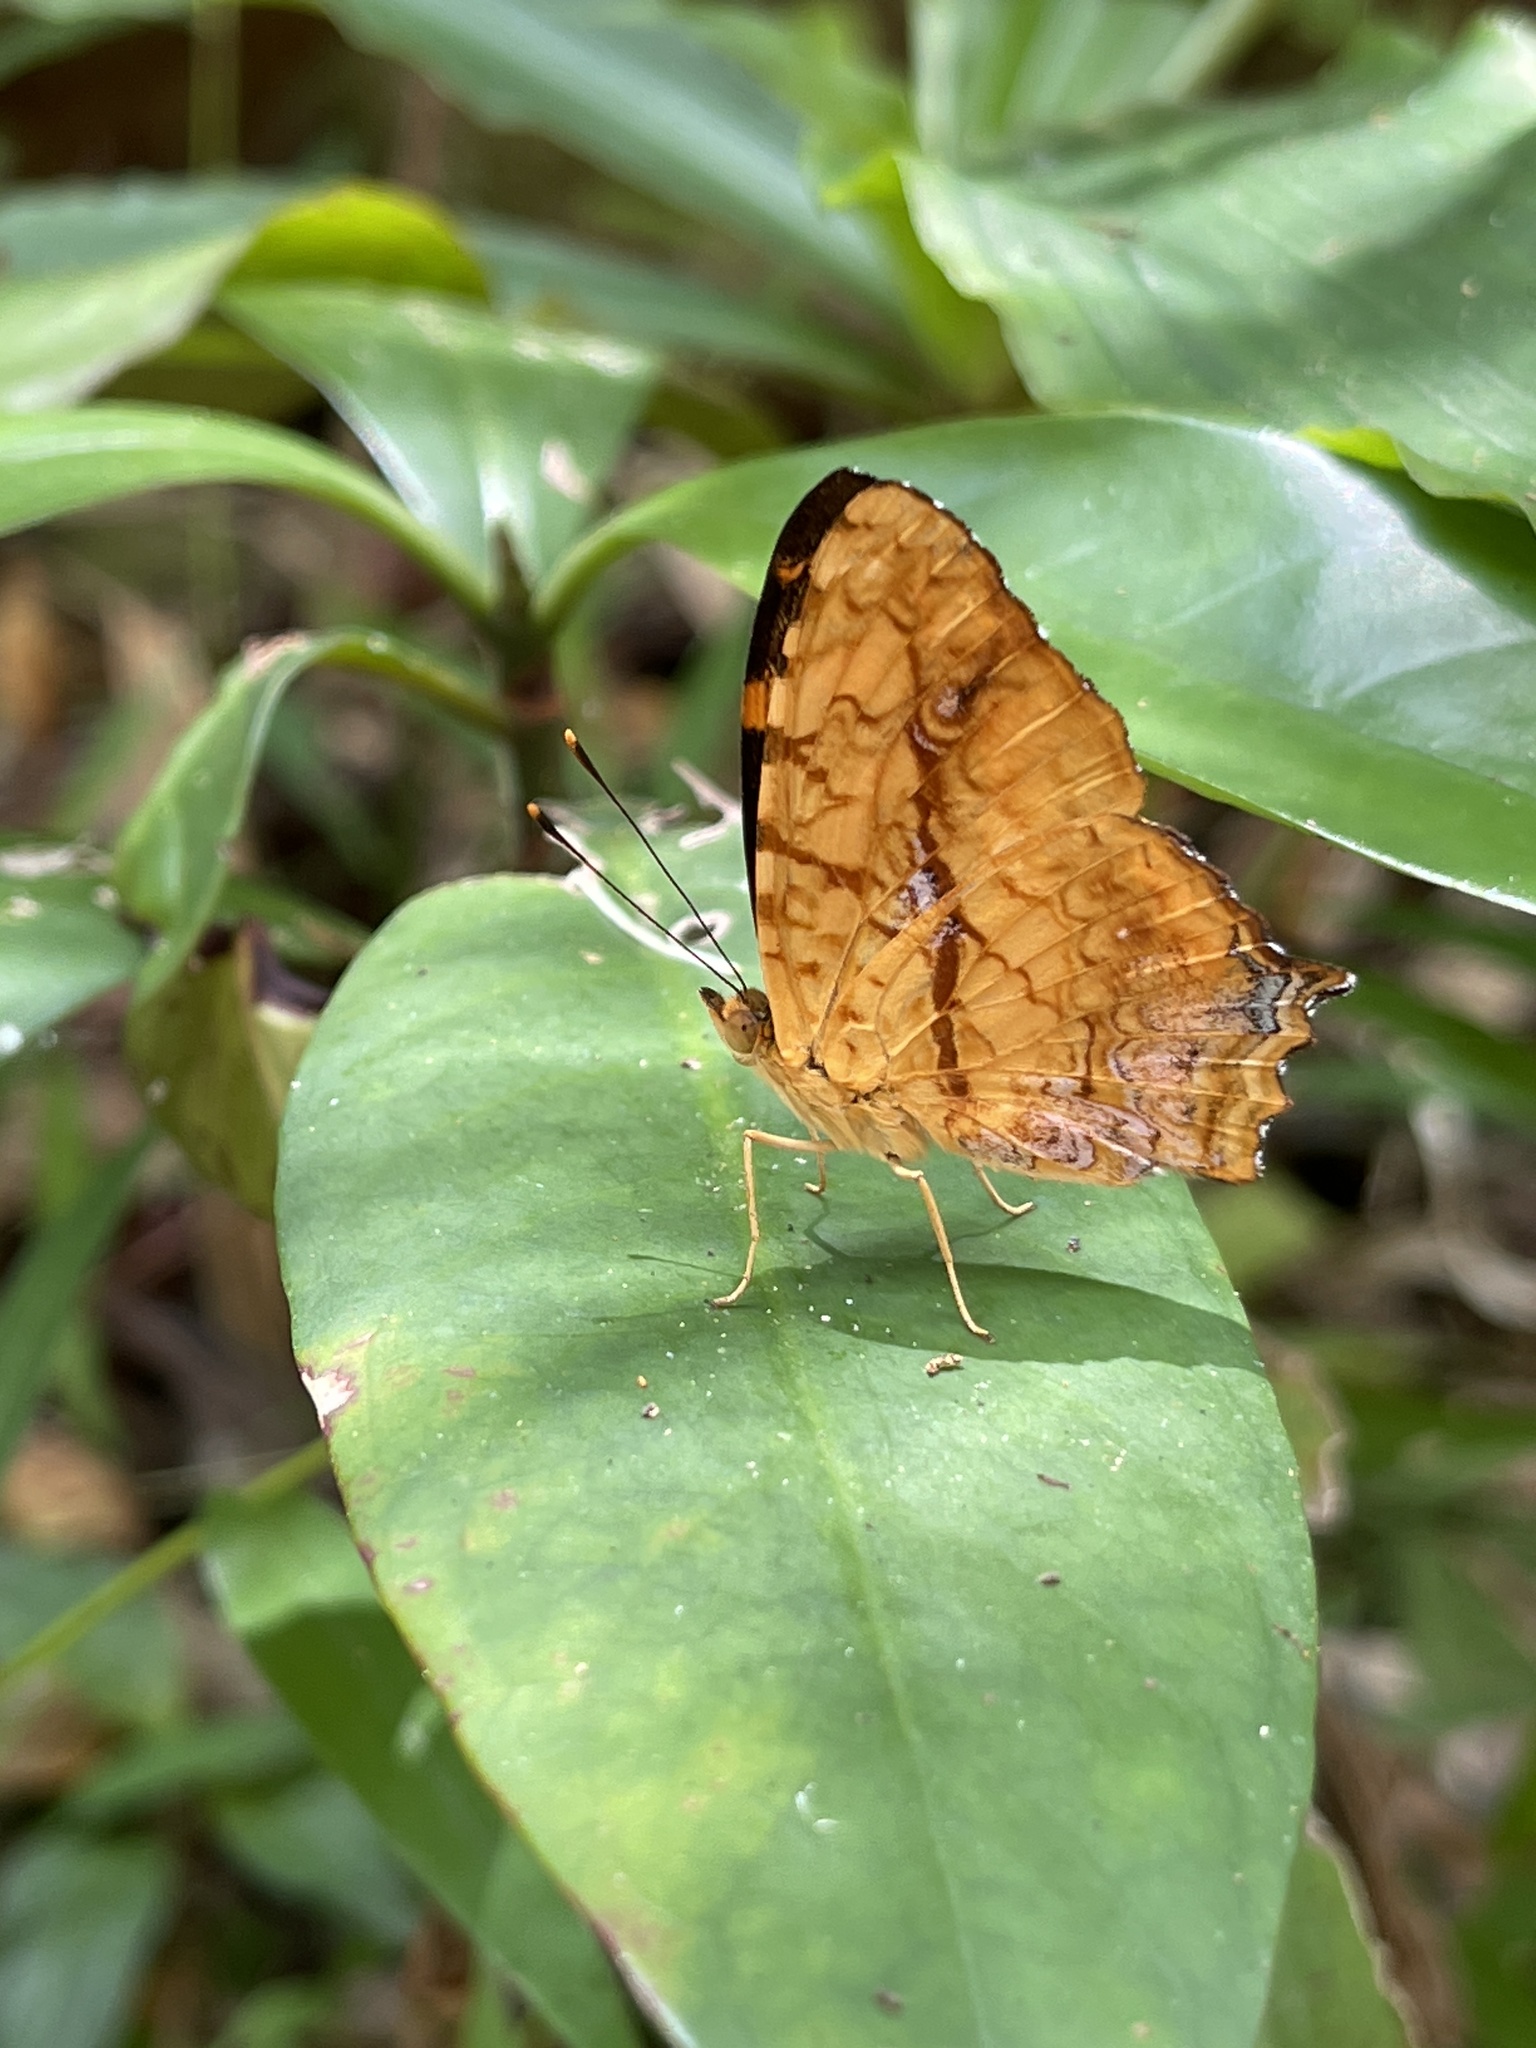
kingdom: Animalia
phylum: Arthropoda
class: Insecta
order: Lepidoptera
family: Nymphalidae
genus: Symbrenthia
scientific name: Symbrenthia hypselis
